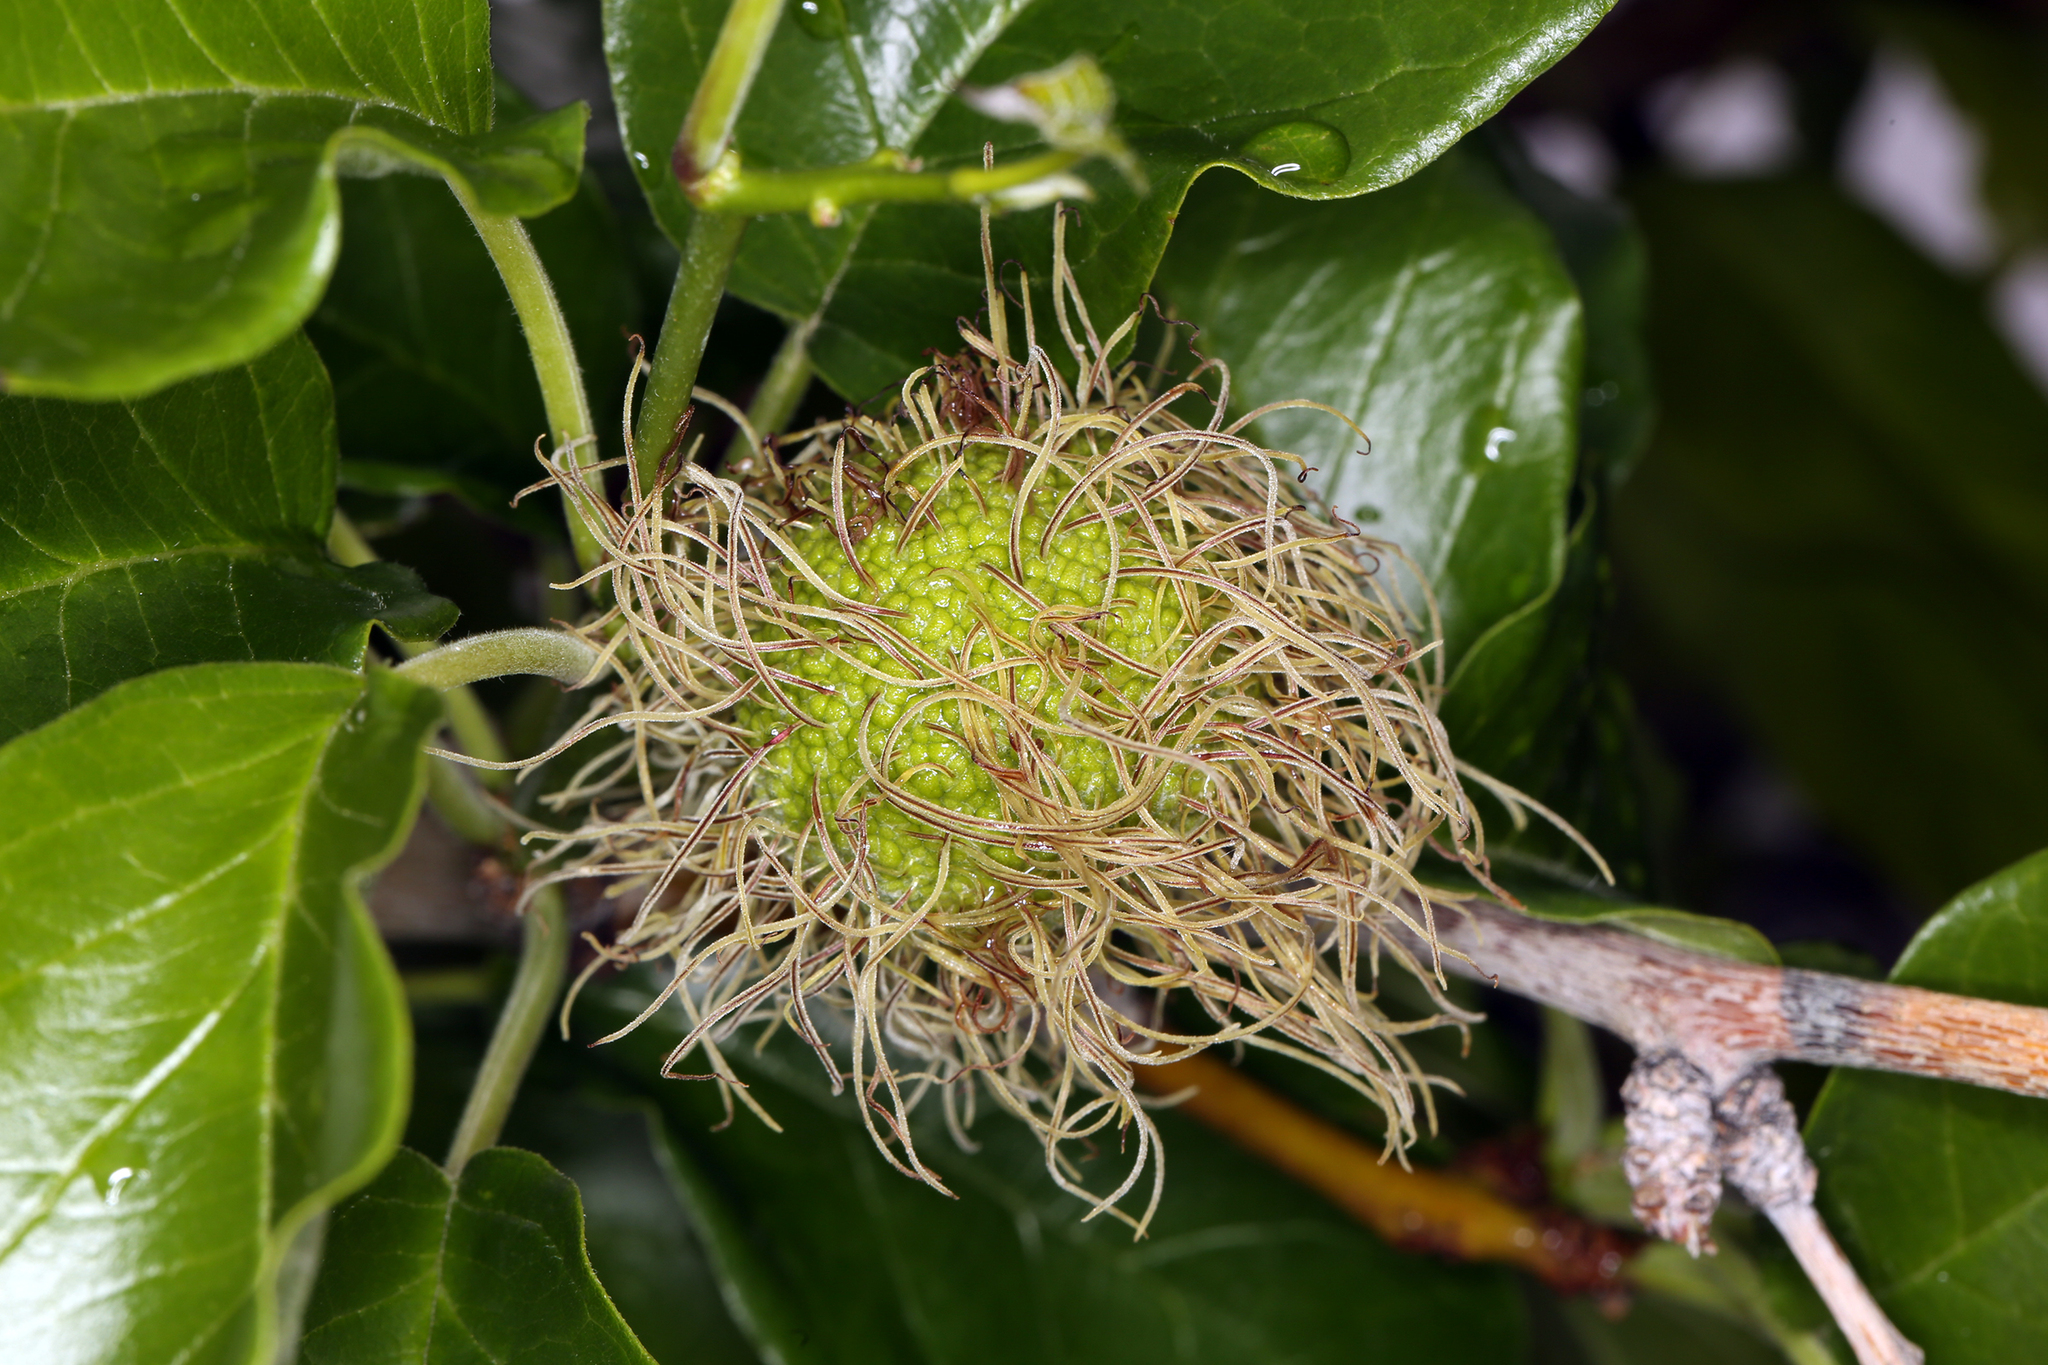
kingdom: Plantae
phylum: Tracheophyta
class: Magnoliopsida
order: Rosales
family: Moraceae
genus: Maclura
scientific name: Maclura pomifera
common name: Osage-orange
